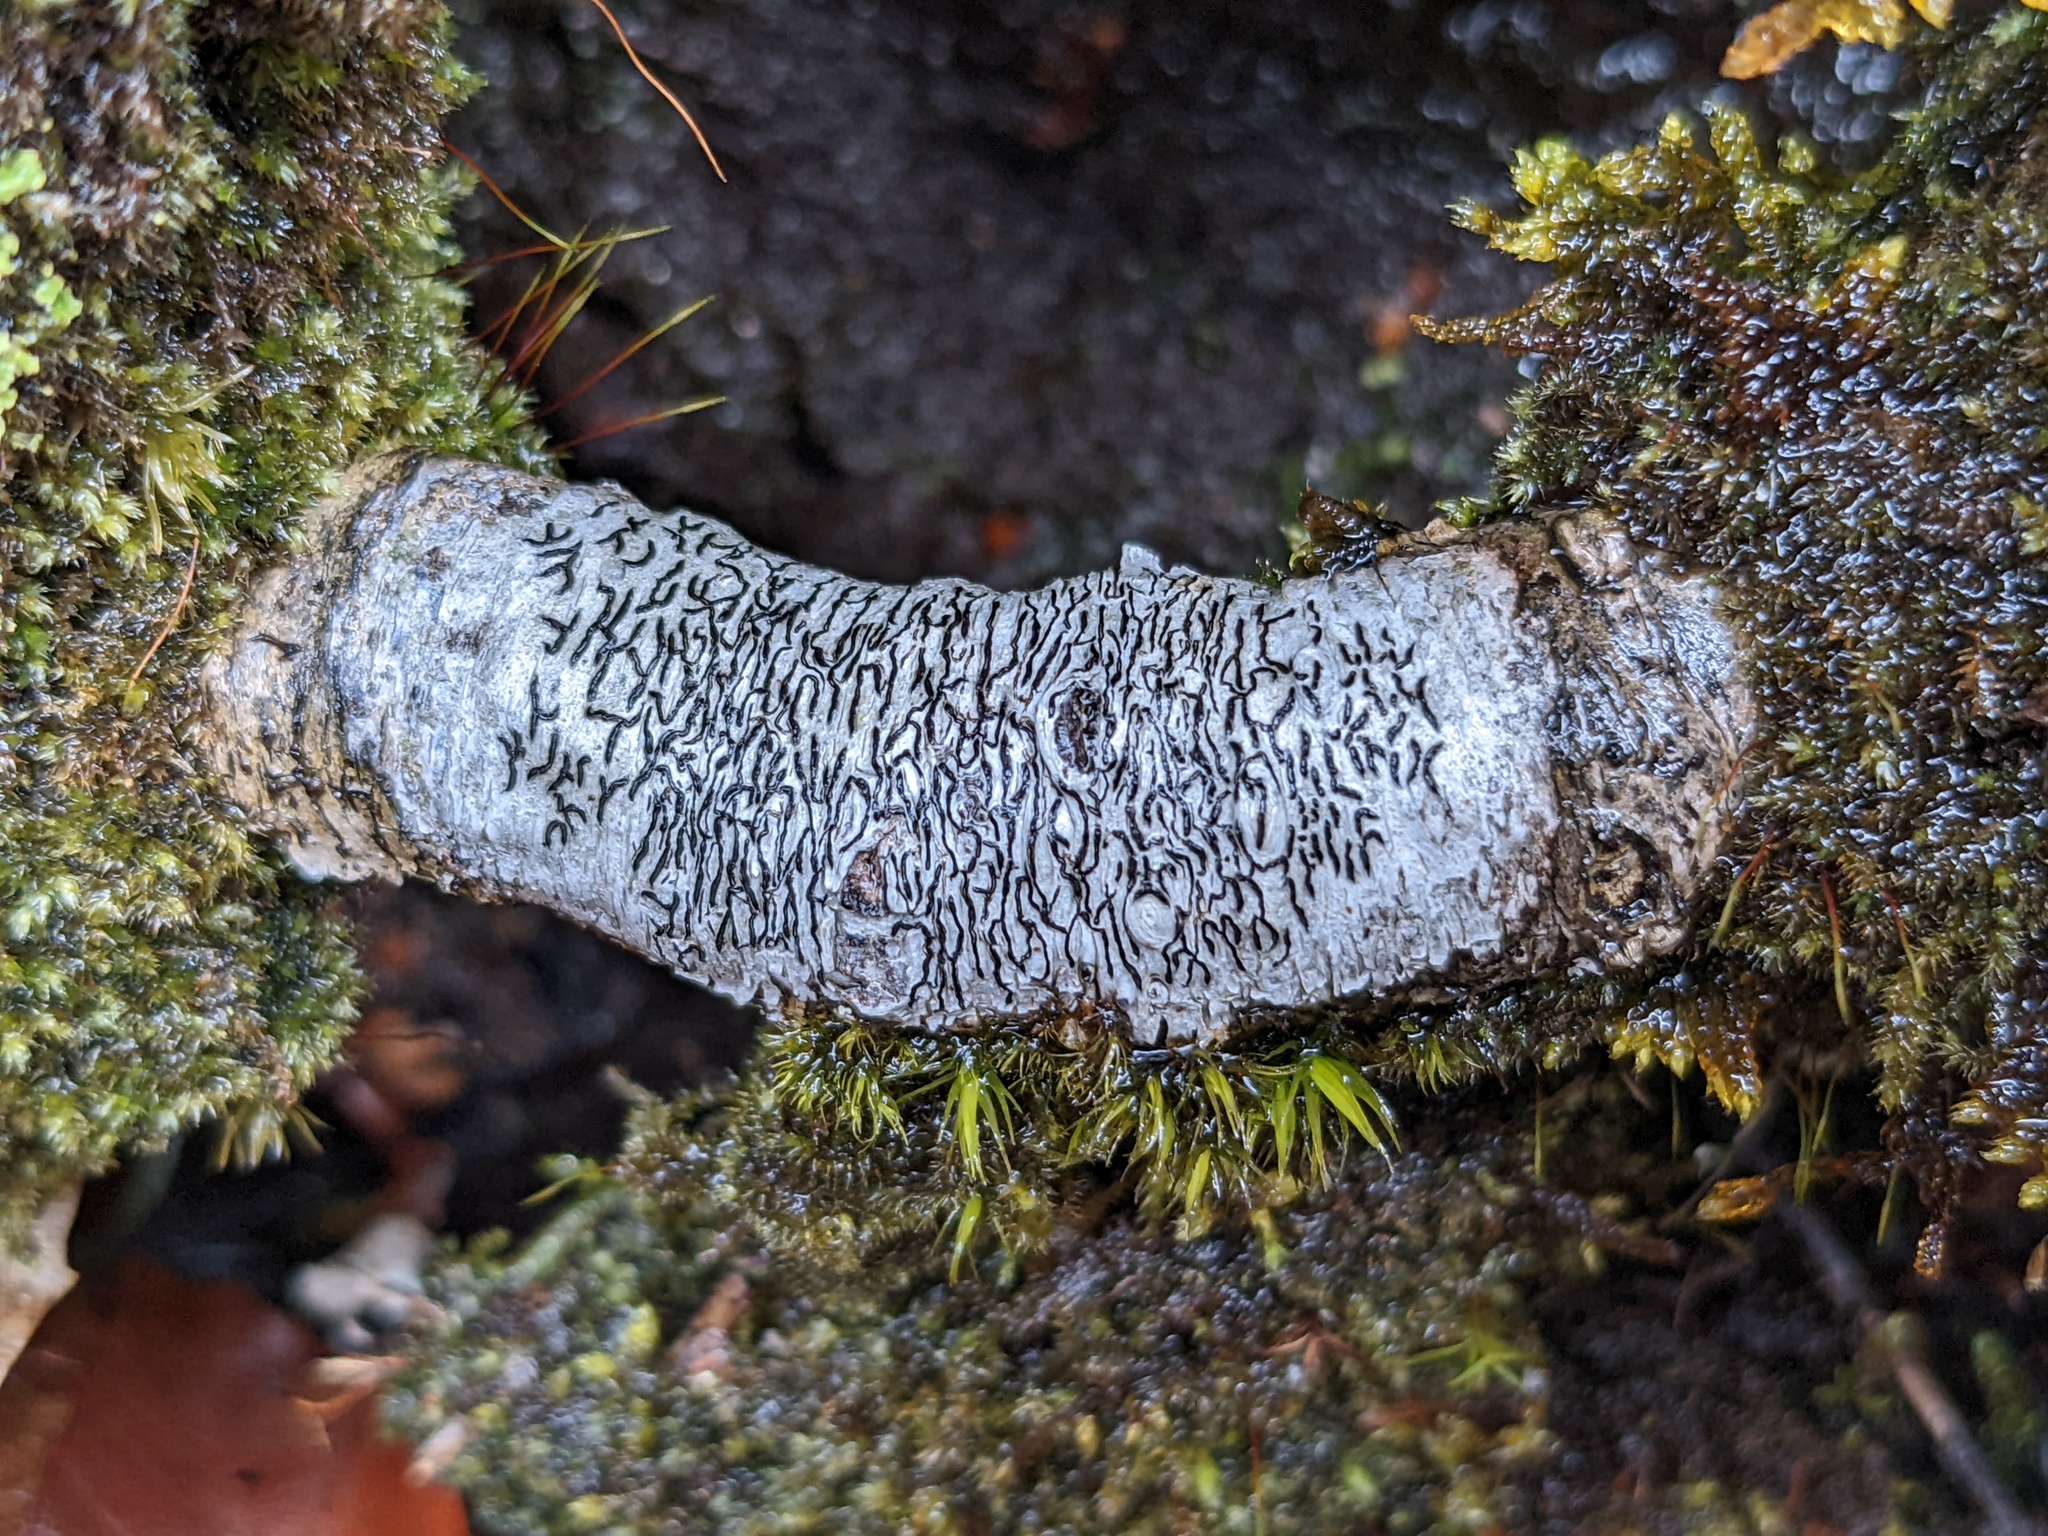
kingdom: Fungi
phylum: Ascomycota
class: Lecanoromycetes
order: Ostropales
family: Graphidaceae
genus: Graphis
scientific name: Graphis scripta
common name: Script lichen
